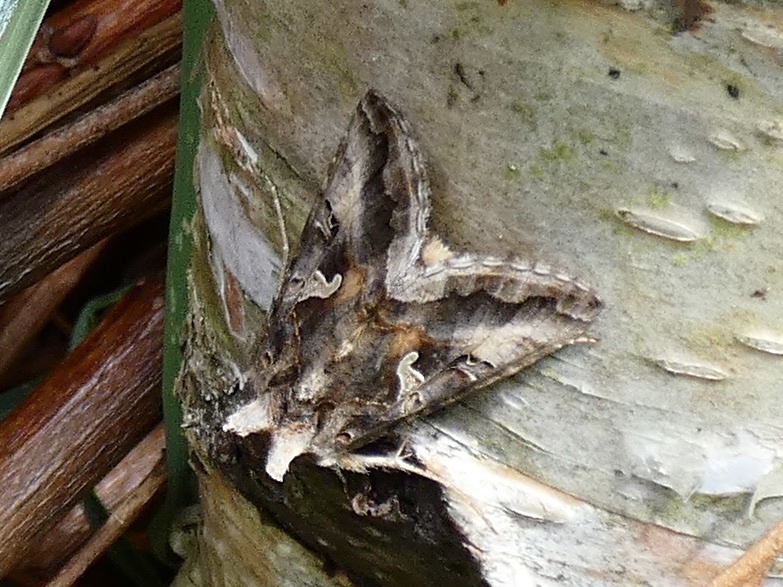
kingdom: Animalia
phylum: Arthropoda
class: Insecta
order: Lepidoptera
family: Noctuidae
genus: Autographa
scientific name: Autographa gamma
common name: Silver y
